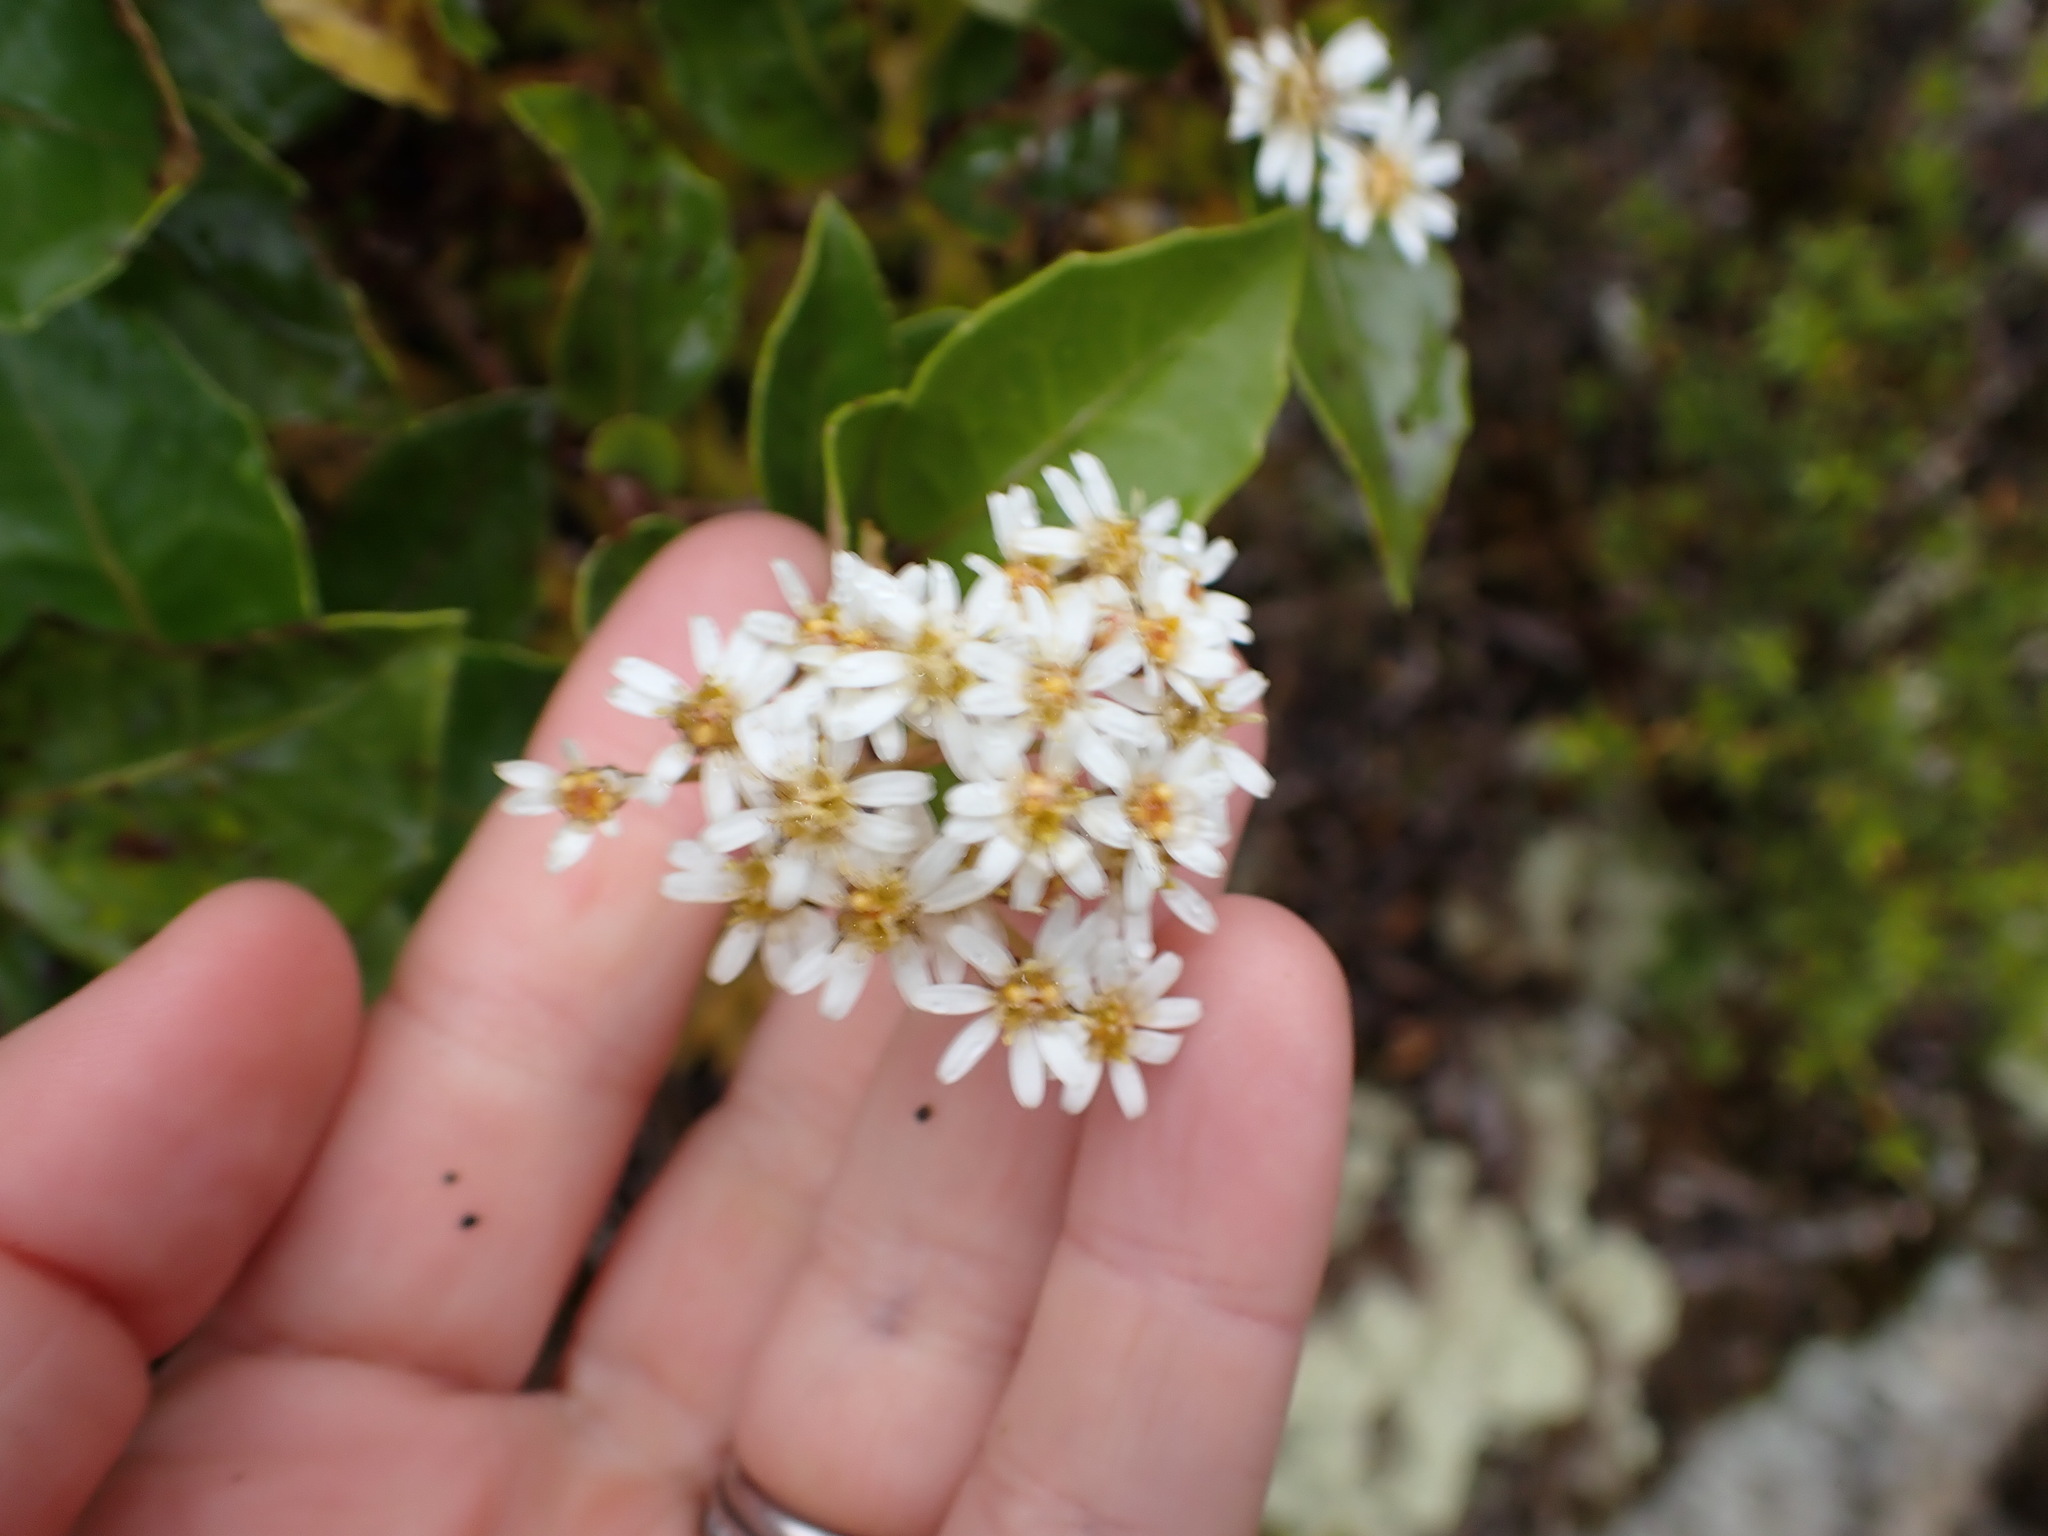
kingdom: Plantae
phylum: Tracheophyta
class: Magnoliopsida
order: Asterales
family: Asteraceae
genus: Olearia
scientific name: Olearia arborescens
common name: Glossy tree daisy
